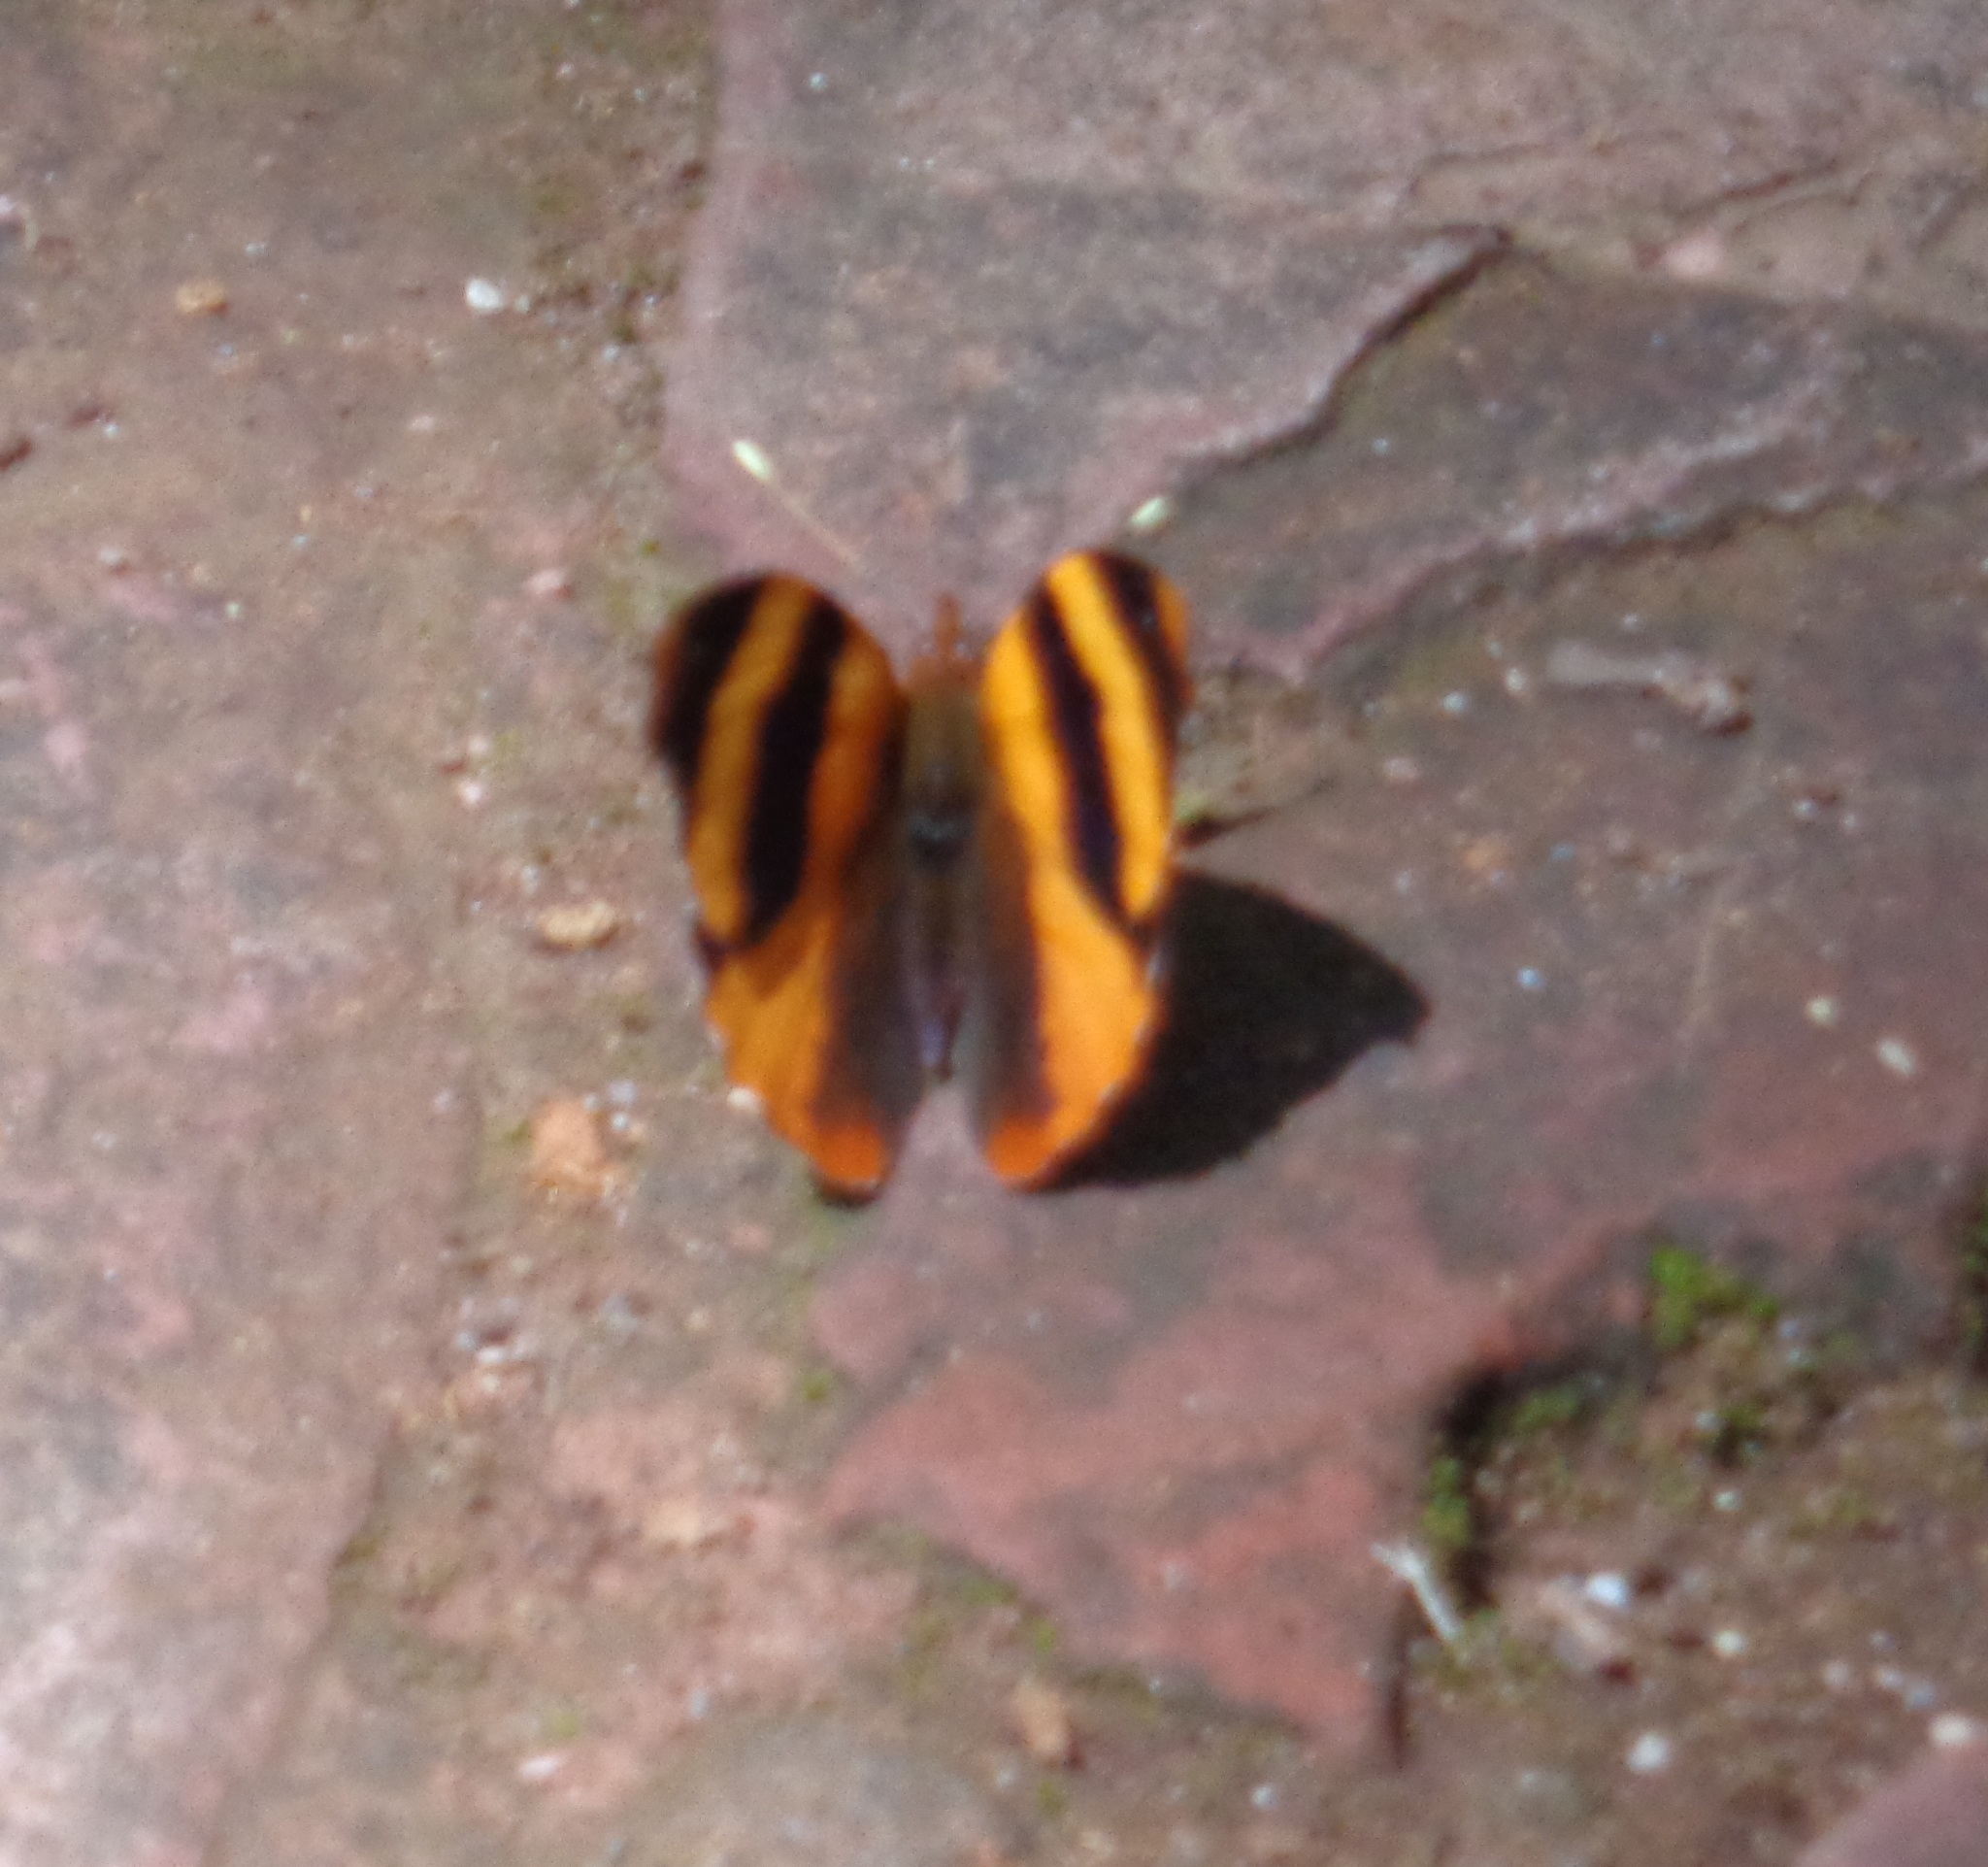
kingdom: Animalia
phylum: Arthropoda
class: Insecta
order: Lepidoptera
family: Nymphalidae
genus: Epiphile
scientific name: Epiphile adrasta
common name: Common banner
